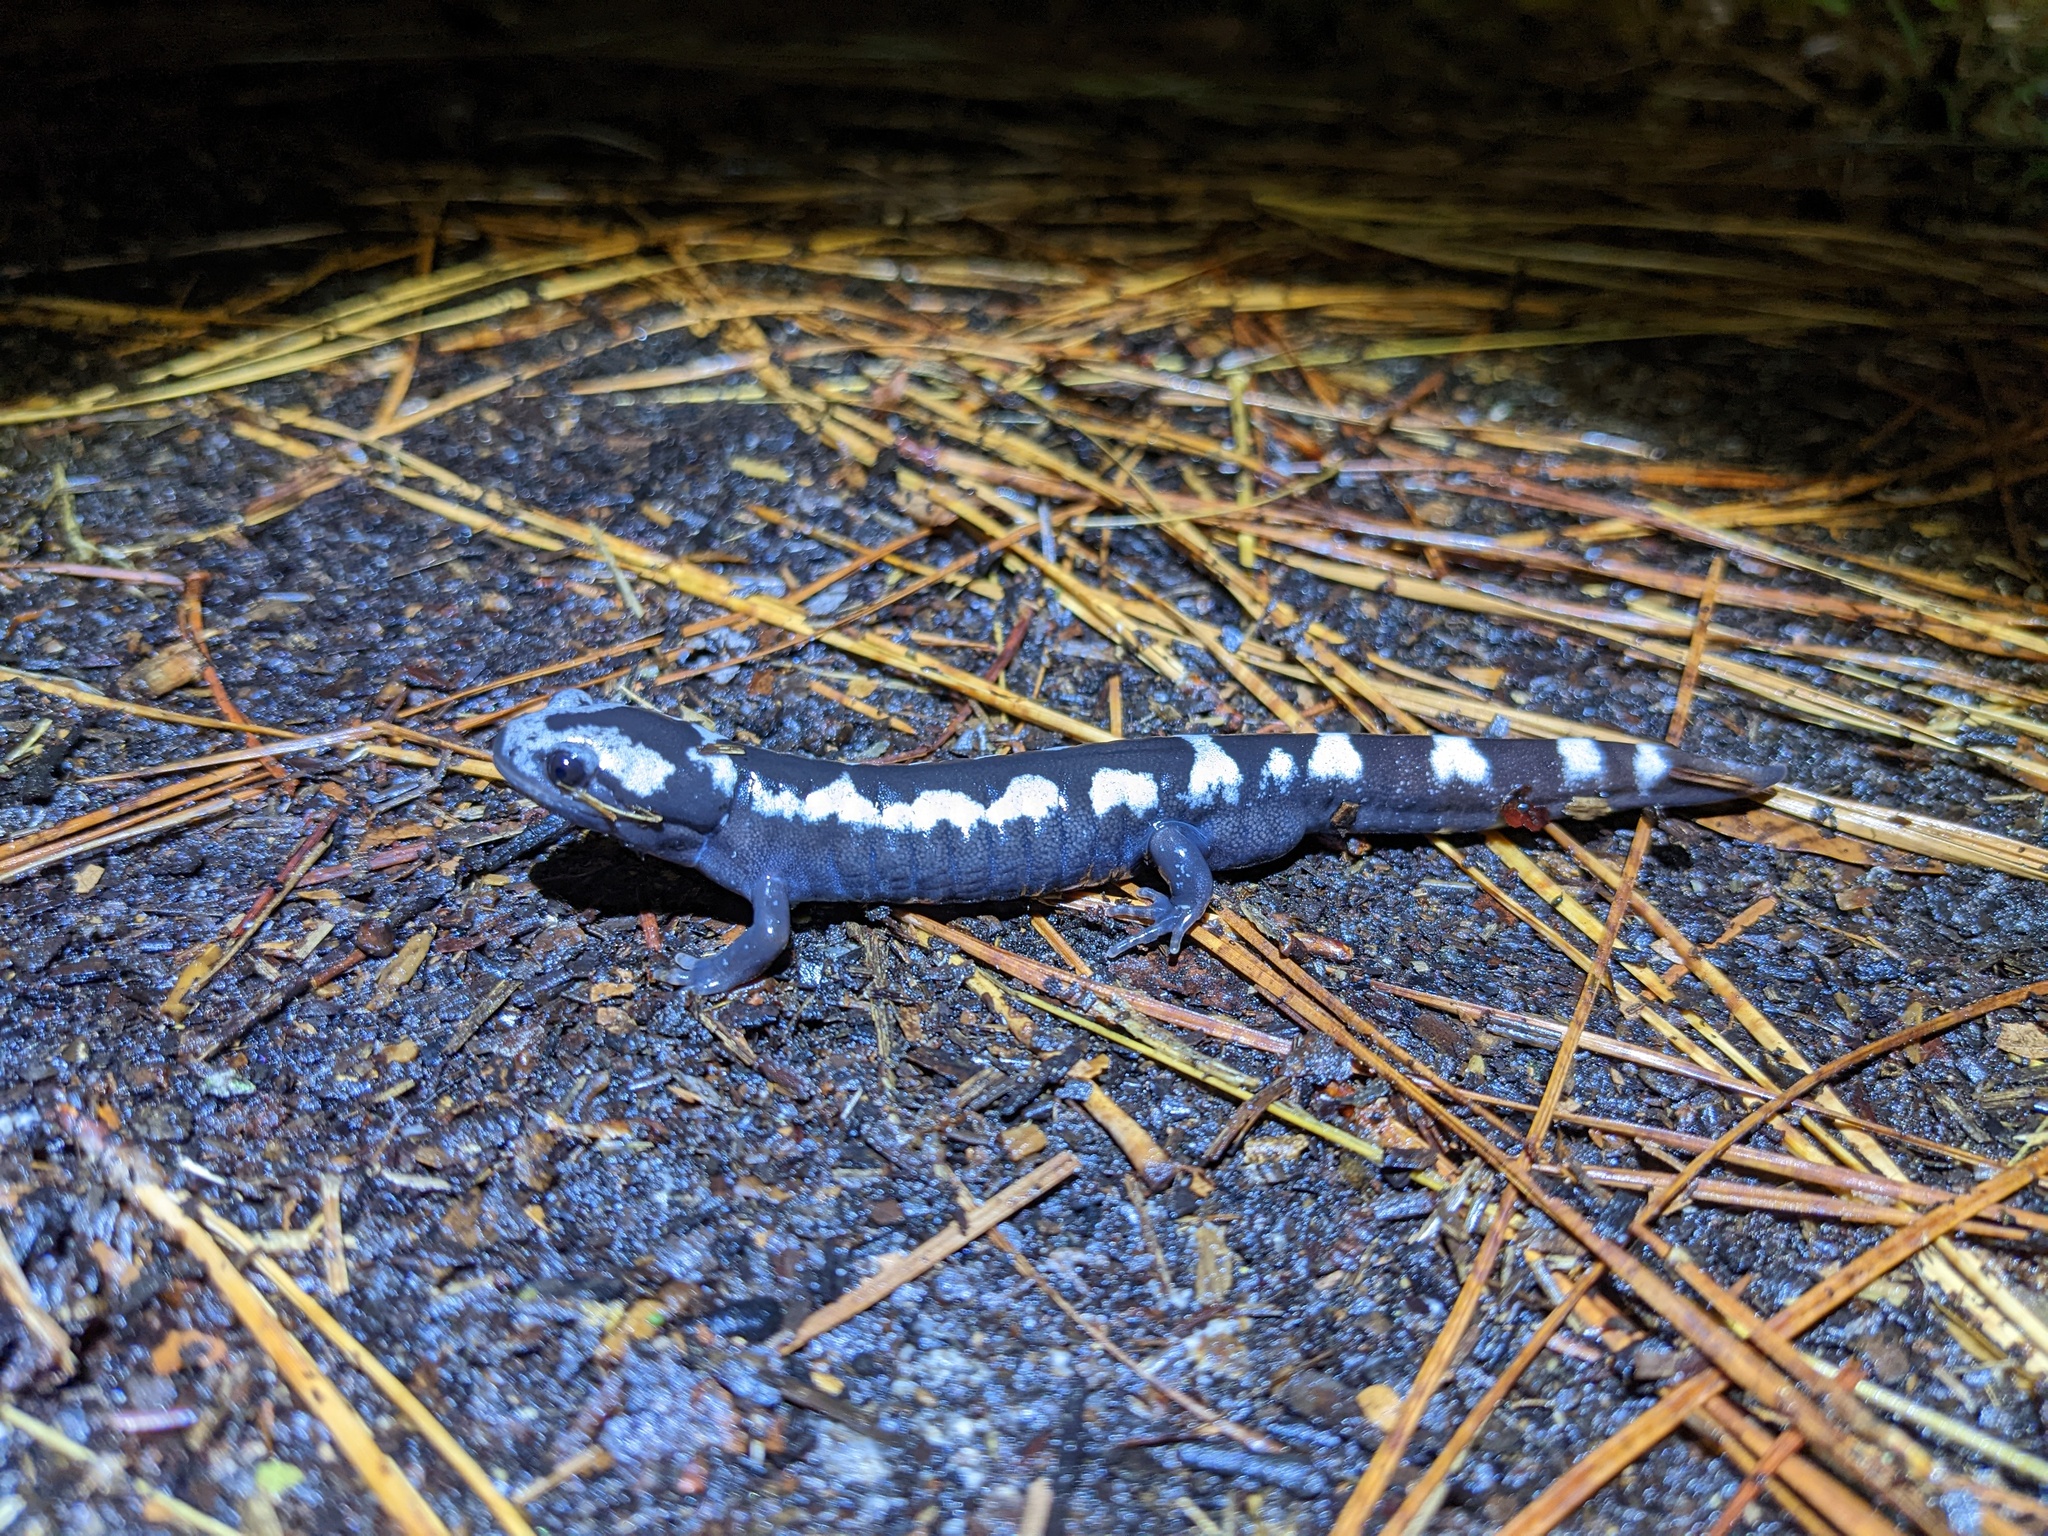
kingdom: Animalia
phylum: Chordata
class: Amphibia
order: Caudata
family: Ambystomatidae
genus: Ambystoma
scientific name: Ambystoma opacum
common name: Marbled salamander
